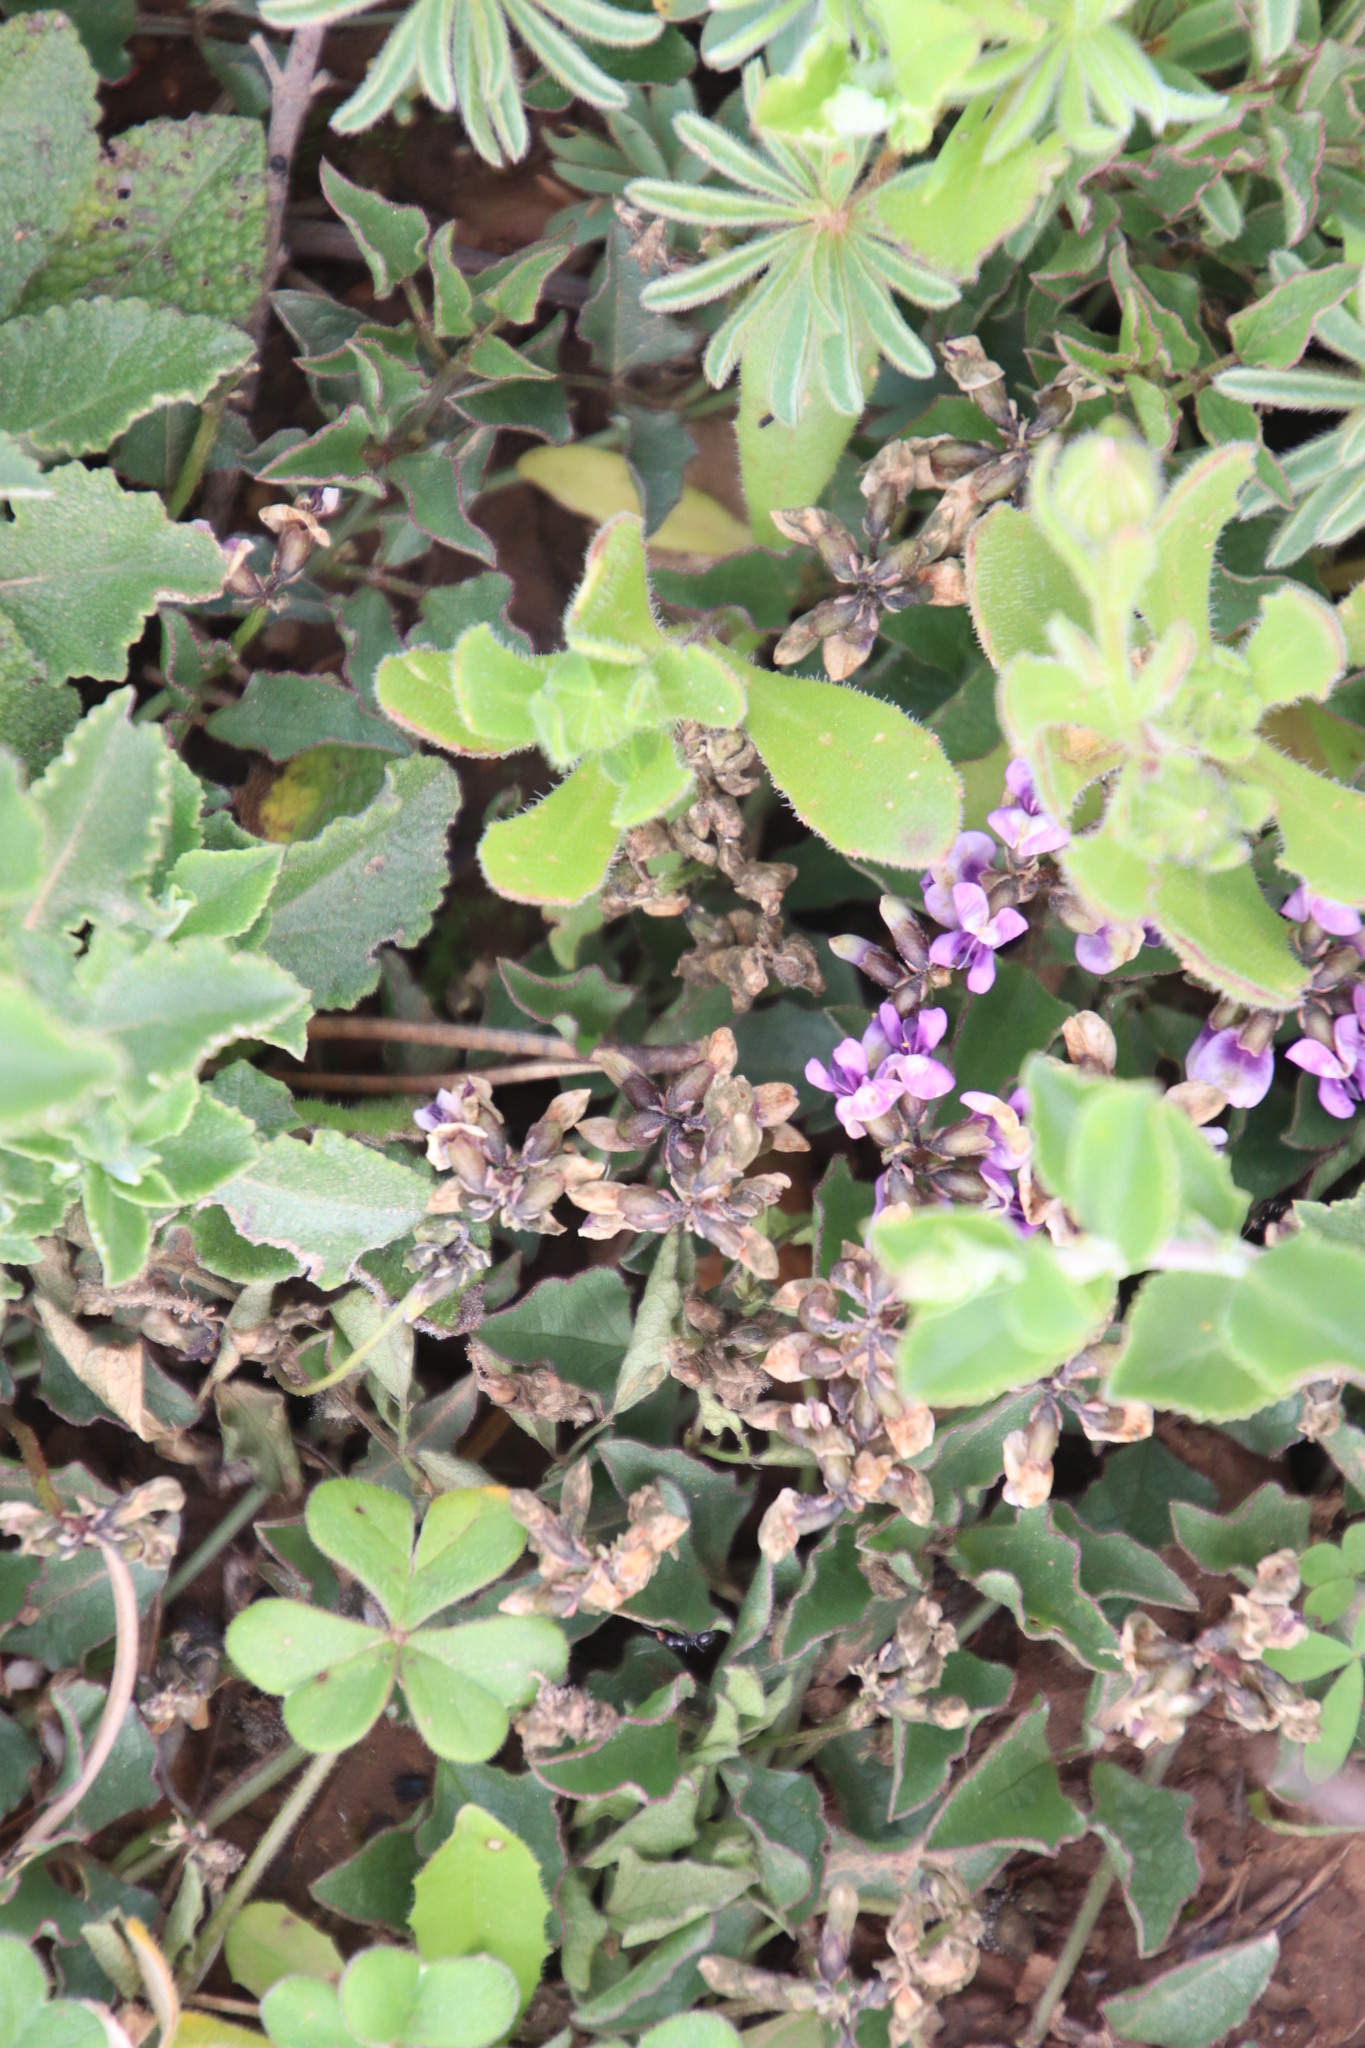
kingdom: Plantae
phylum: Tracheophyta
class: Magnoliopsida
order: Fabales
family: Fabaceae
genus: Dolichos
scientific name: Dolichos decumbens
